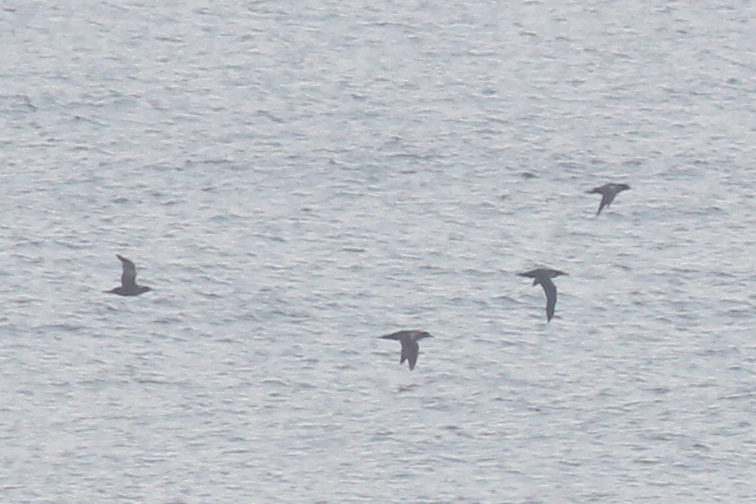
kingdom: Animalia
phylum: Chordata
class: Aves
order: Procellariiformes
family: Procellariidae
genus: Puffinus
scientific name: Puffinus griseus
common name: Sooty shearwater
